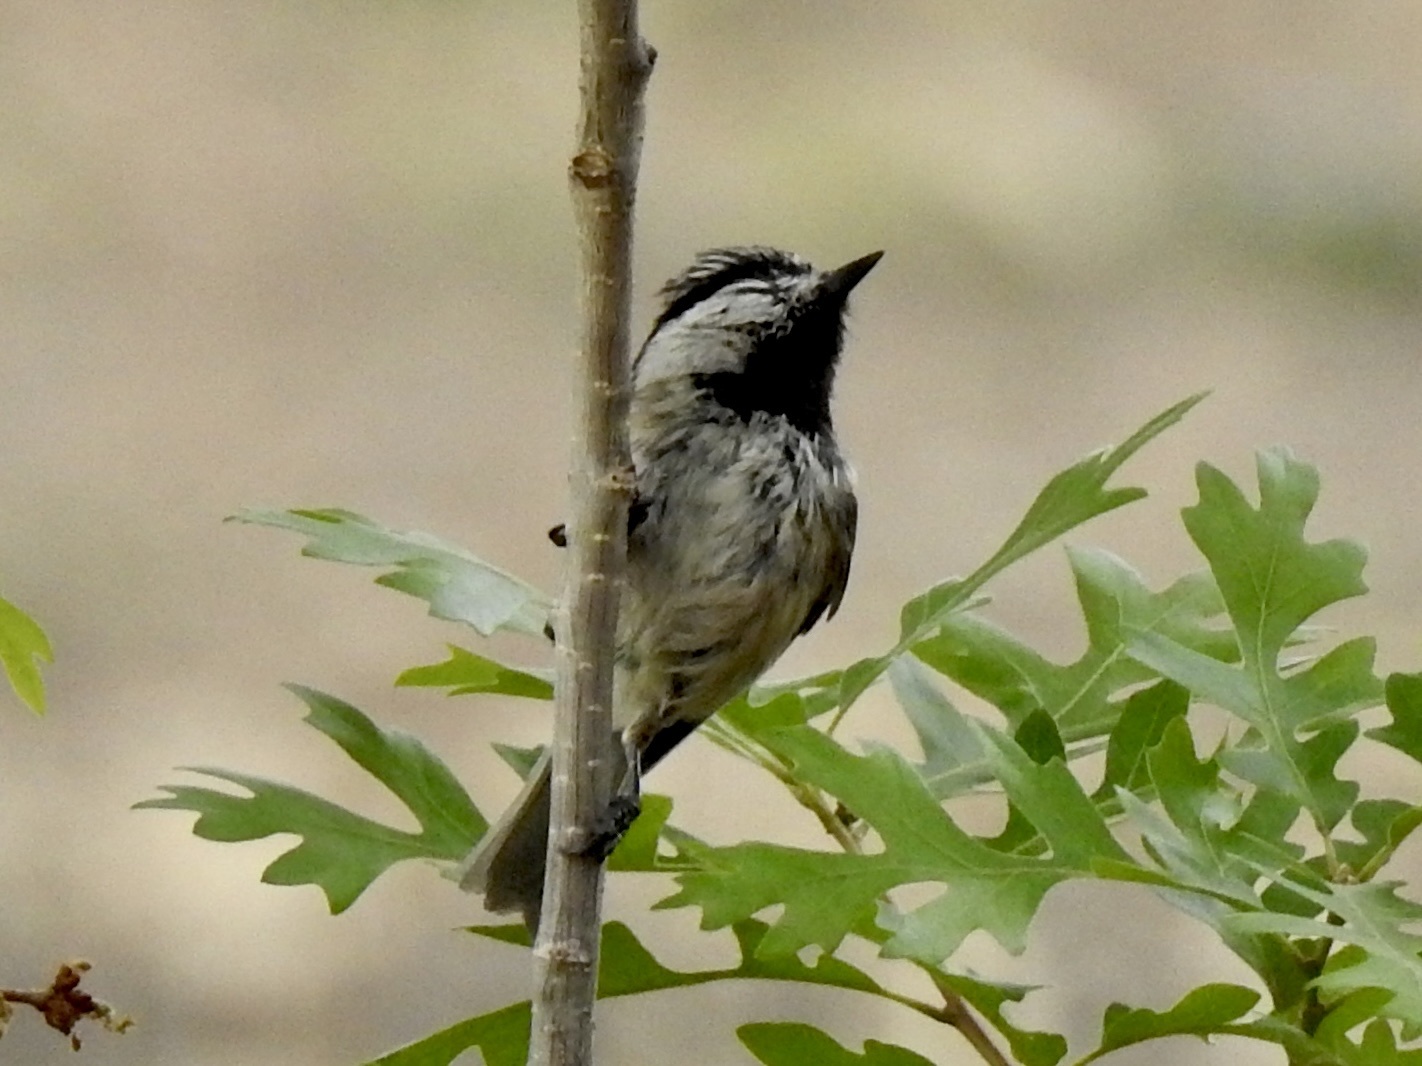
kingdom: Animalia
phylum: Chordata
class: Aves
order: Passeriformes
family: Paridae
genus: Poecile
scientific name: Poecile gambeli
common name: Mountain chickadee
